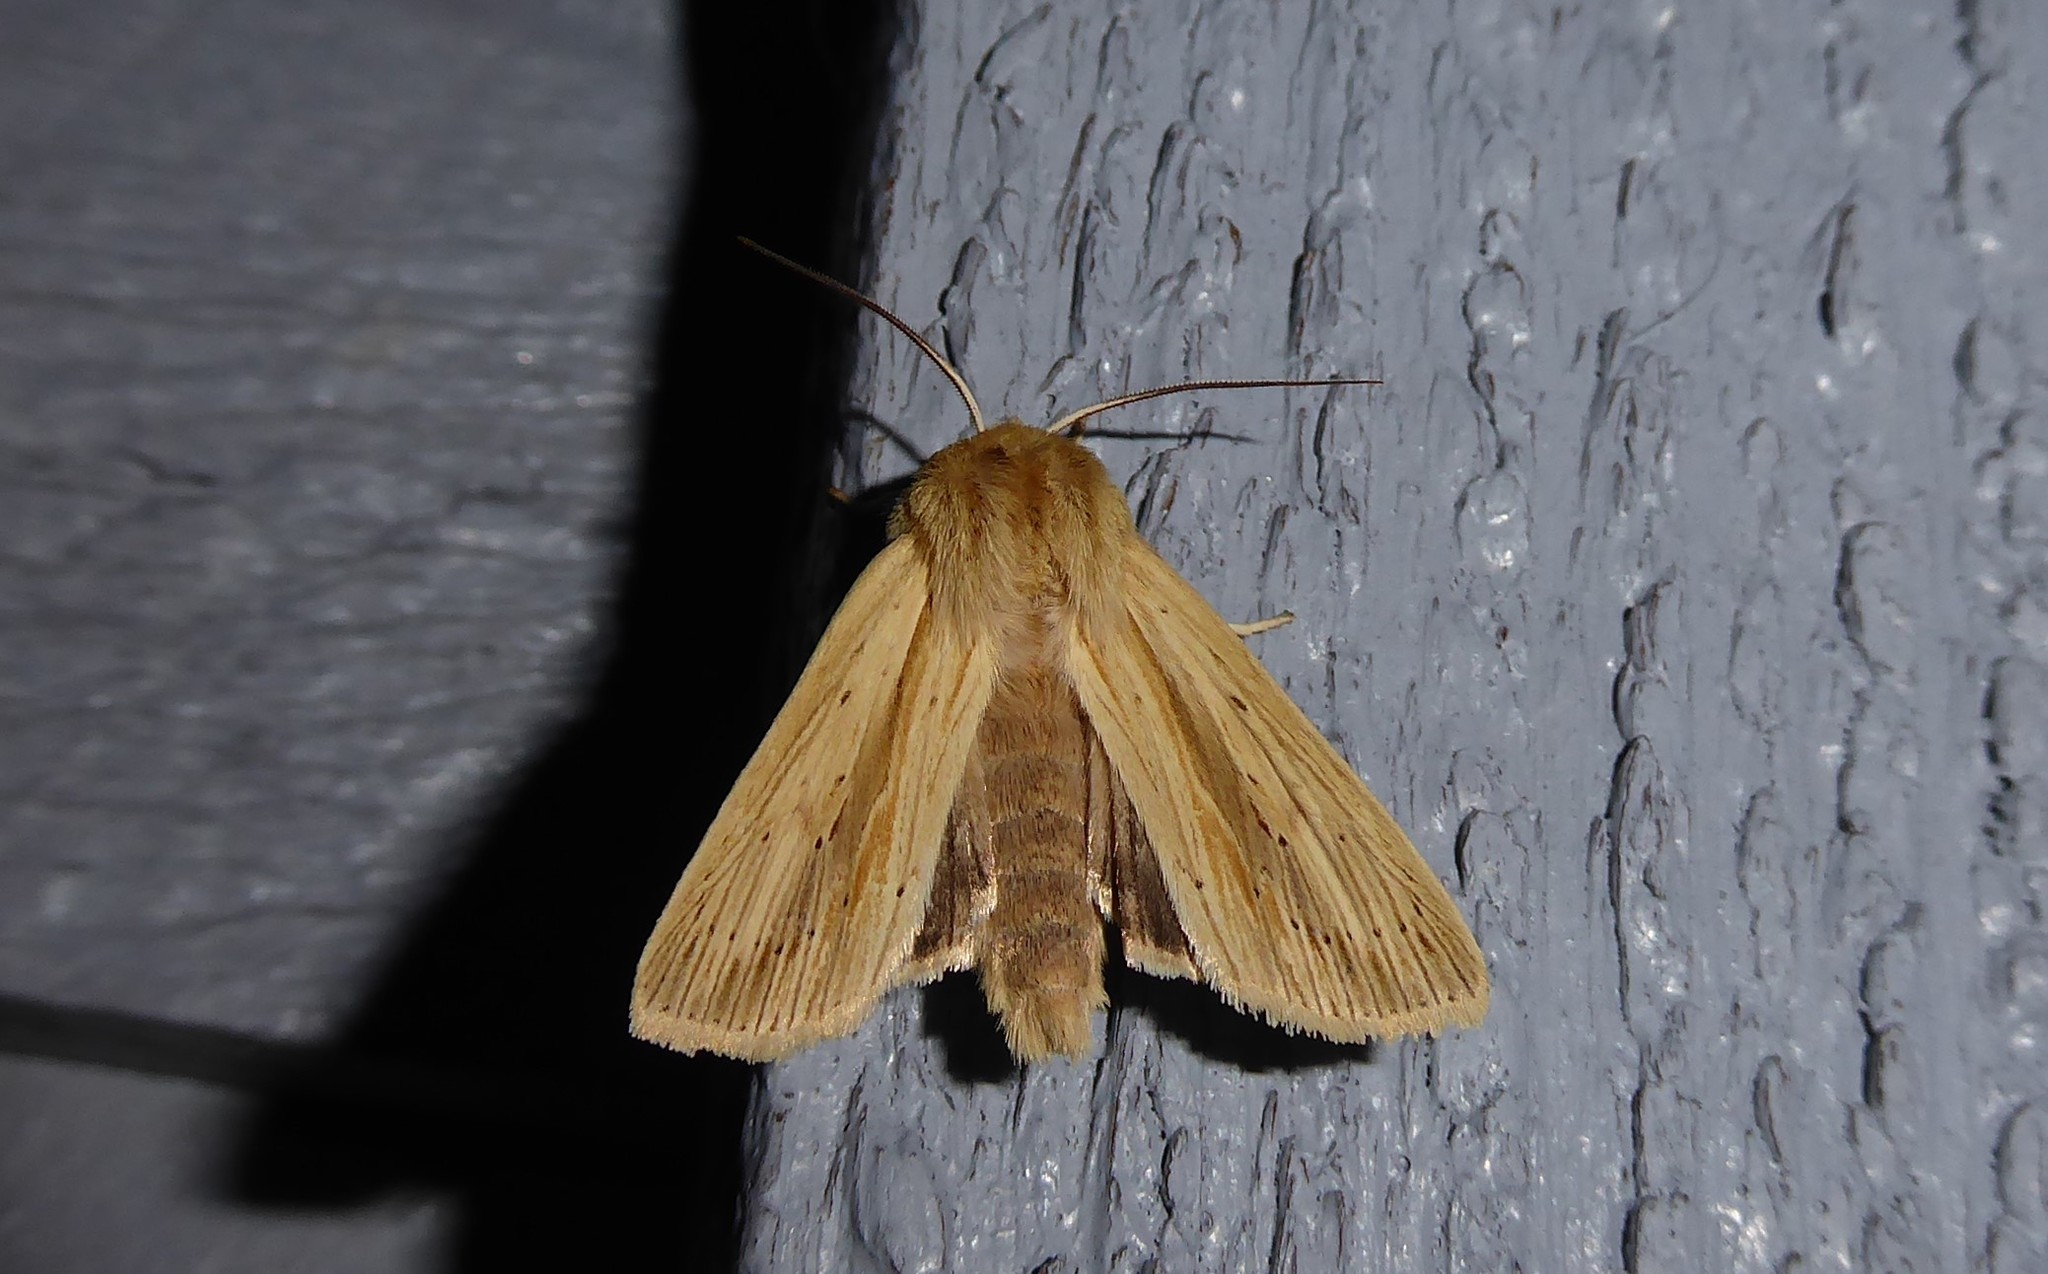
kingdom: Animalia
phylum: Arthropoda
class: Insecta
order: Lepidoptera
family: Noctuidae
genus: Ichneutica
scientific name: Ichneutica semivittata
